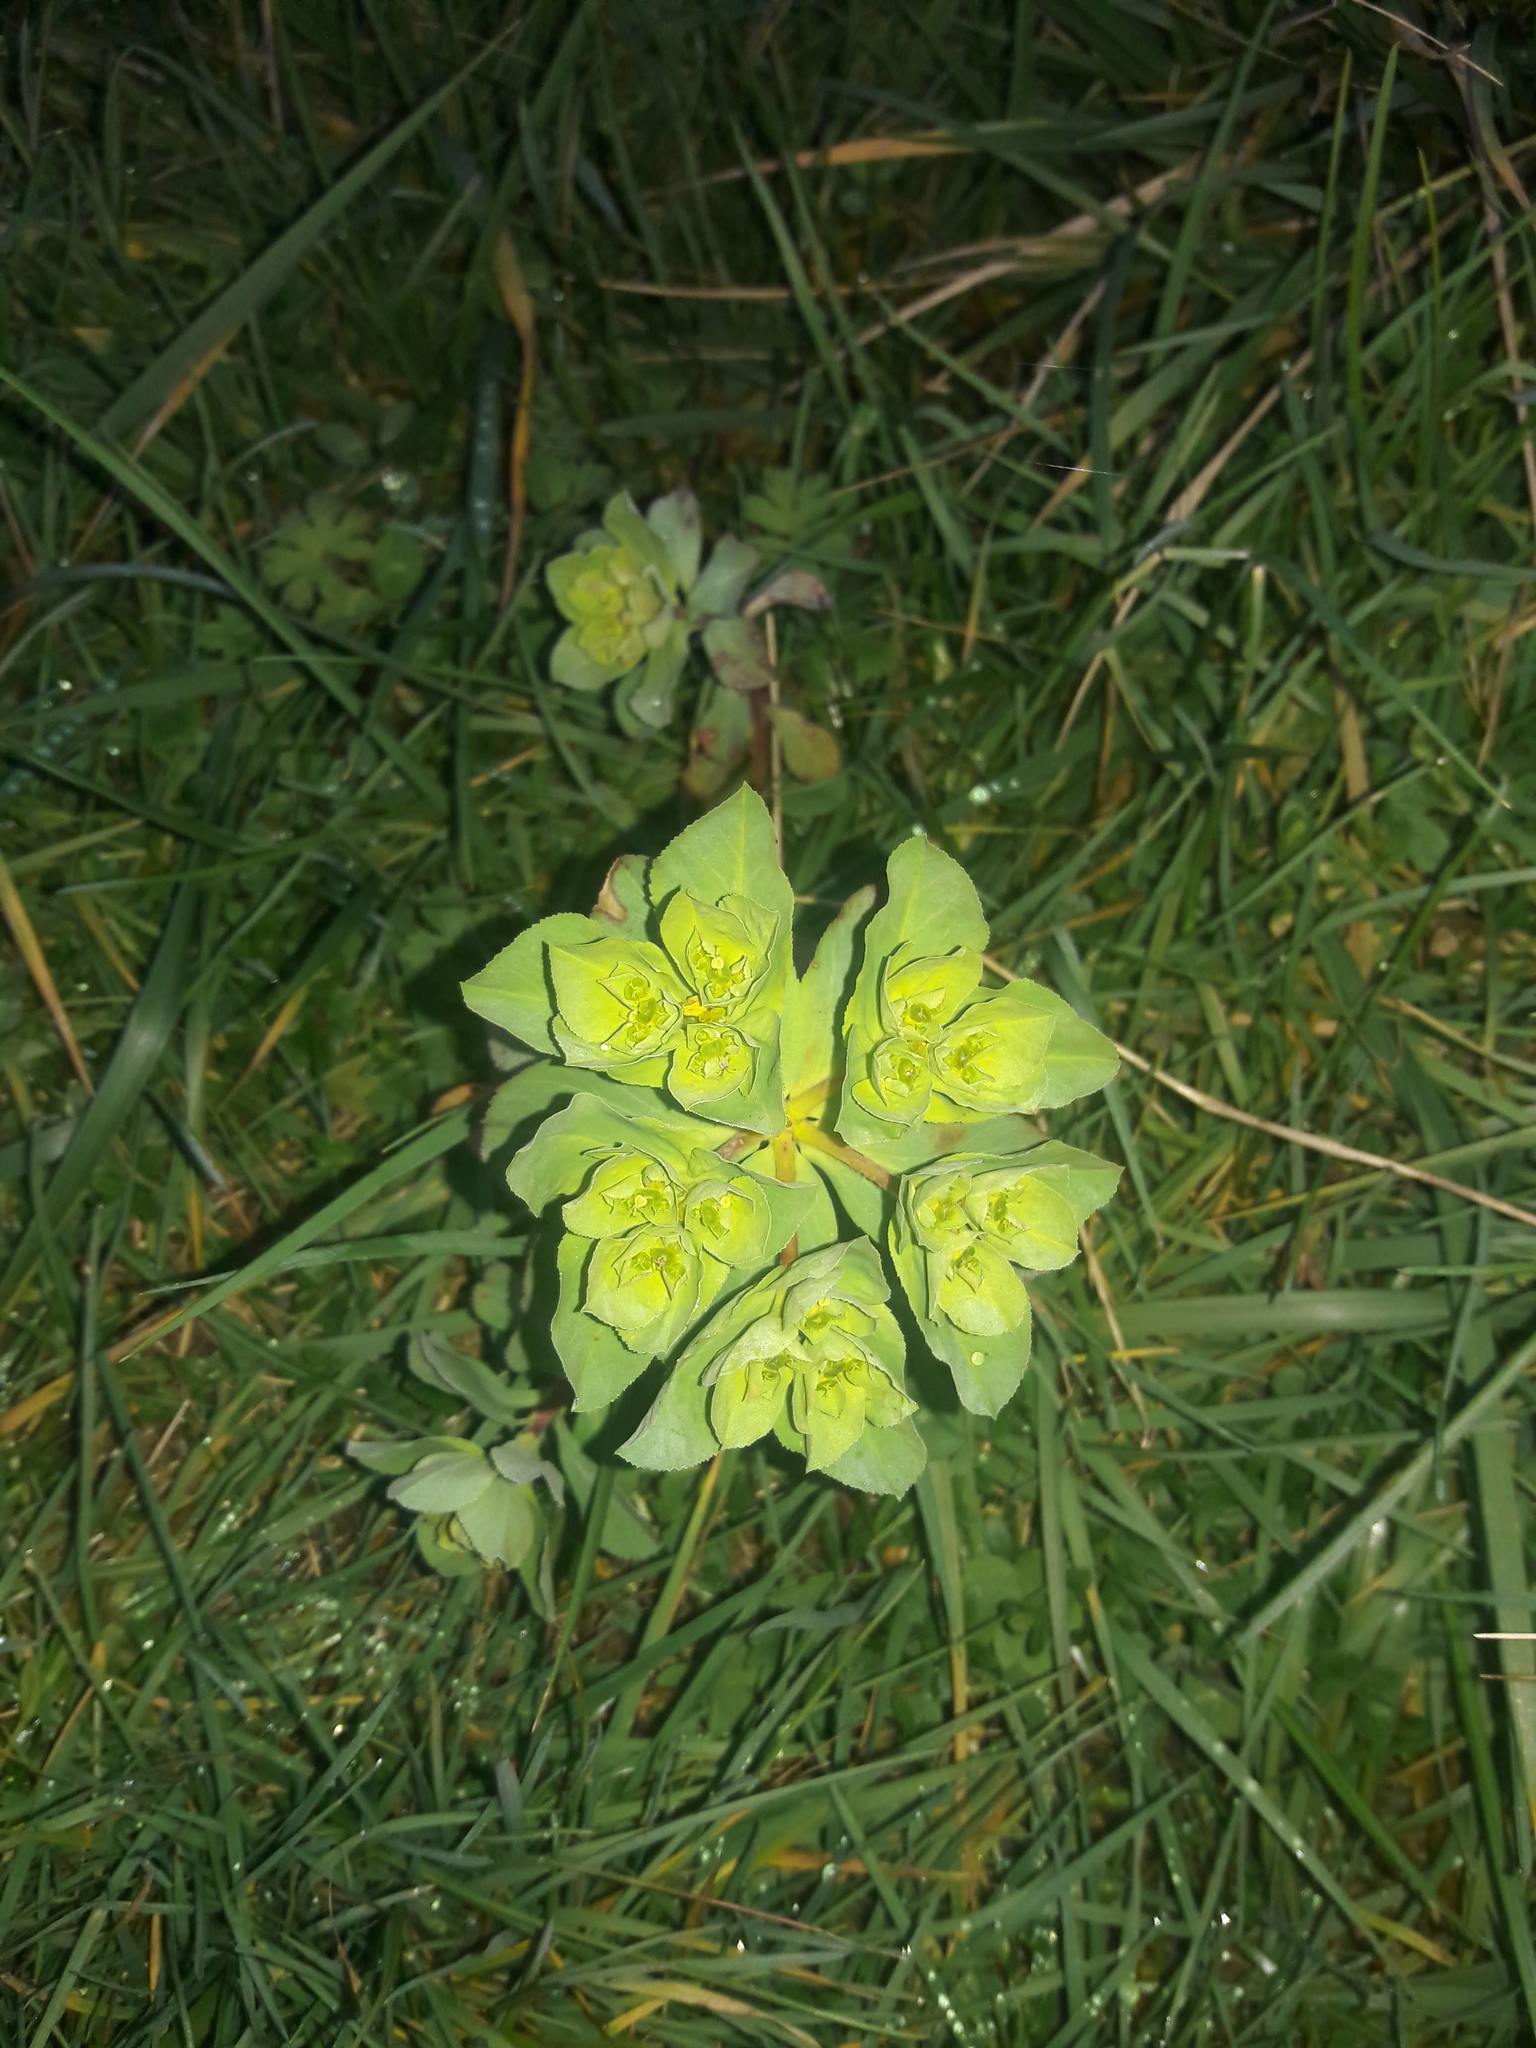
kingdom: Plantae
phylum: Tracheophyta
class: Magnoliopsida
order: Malpighiales
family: Euphorbiaceae
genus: Euphorbia
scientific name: Euphorbia helioscopia
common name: Sun spurge
